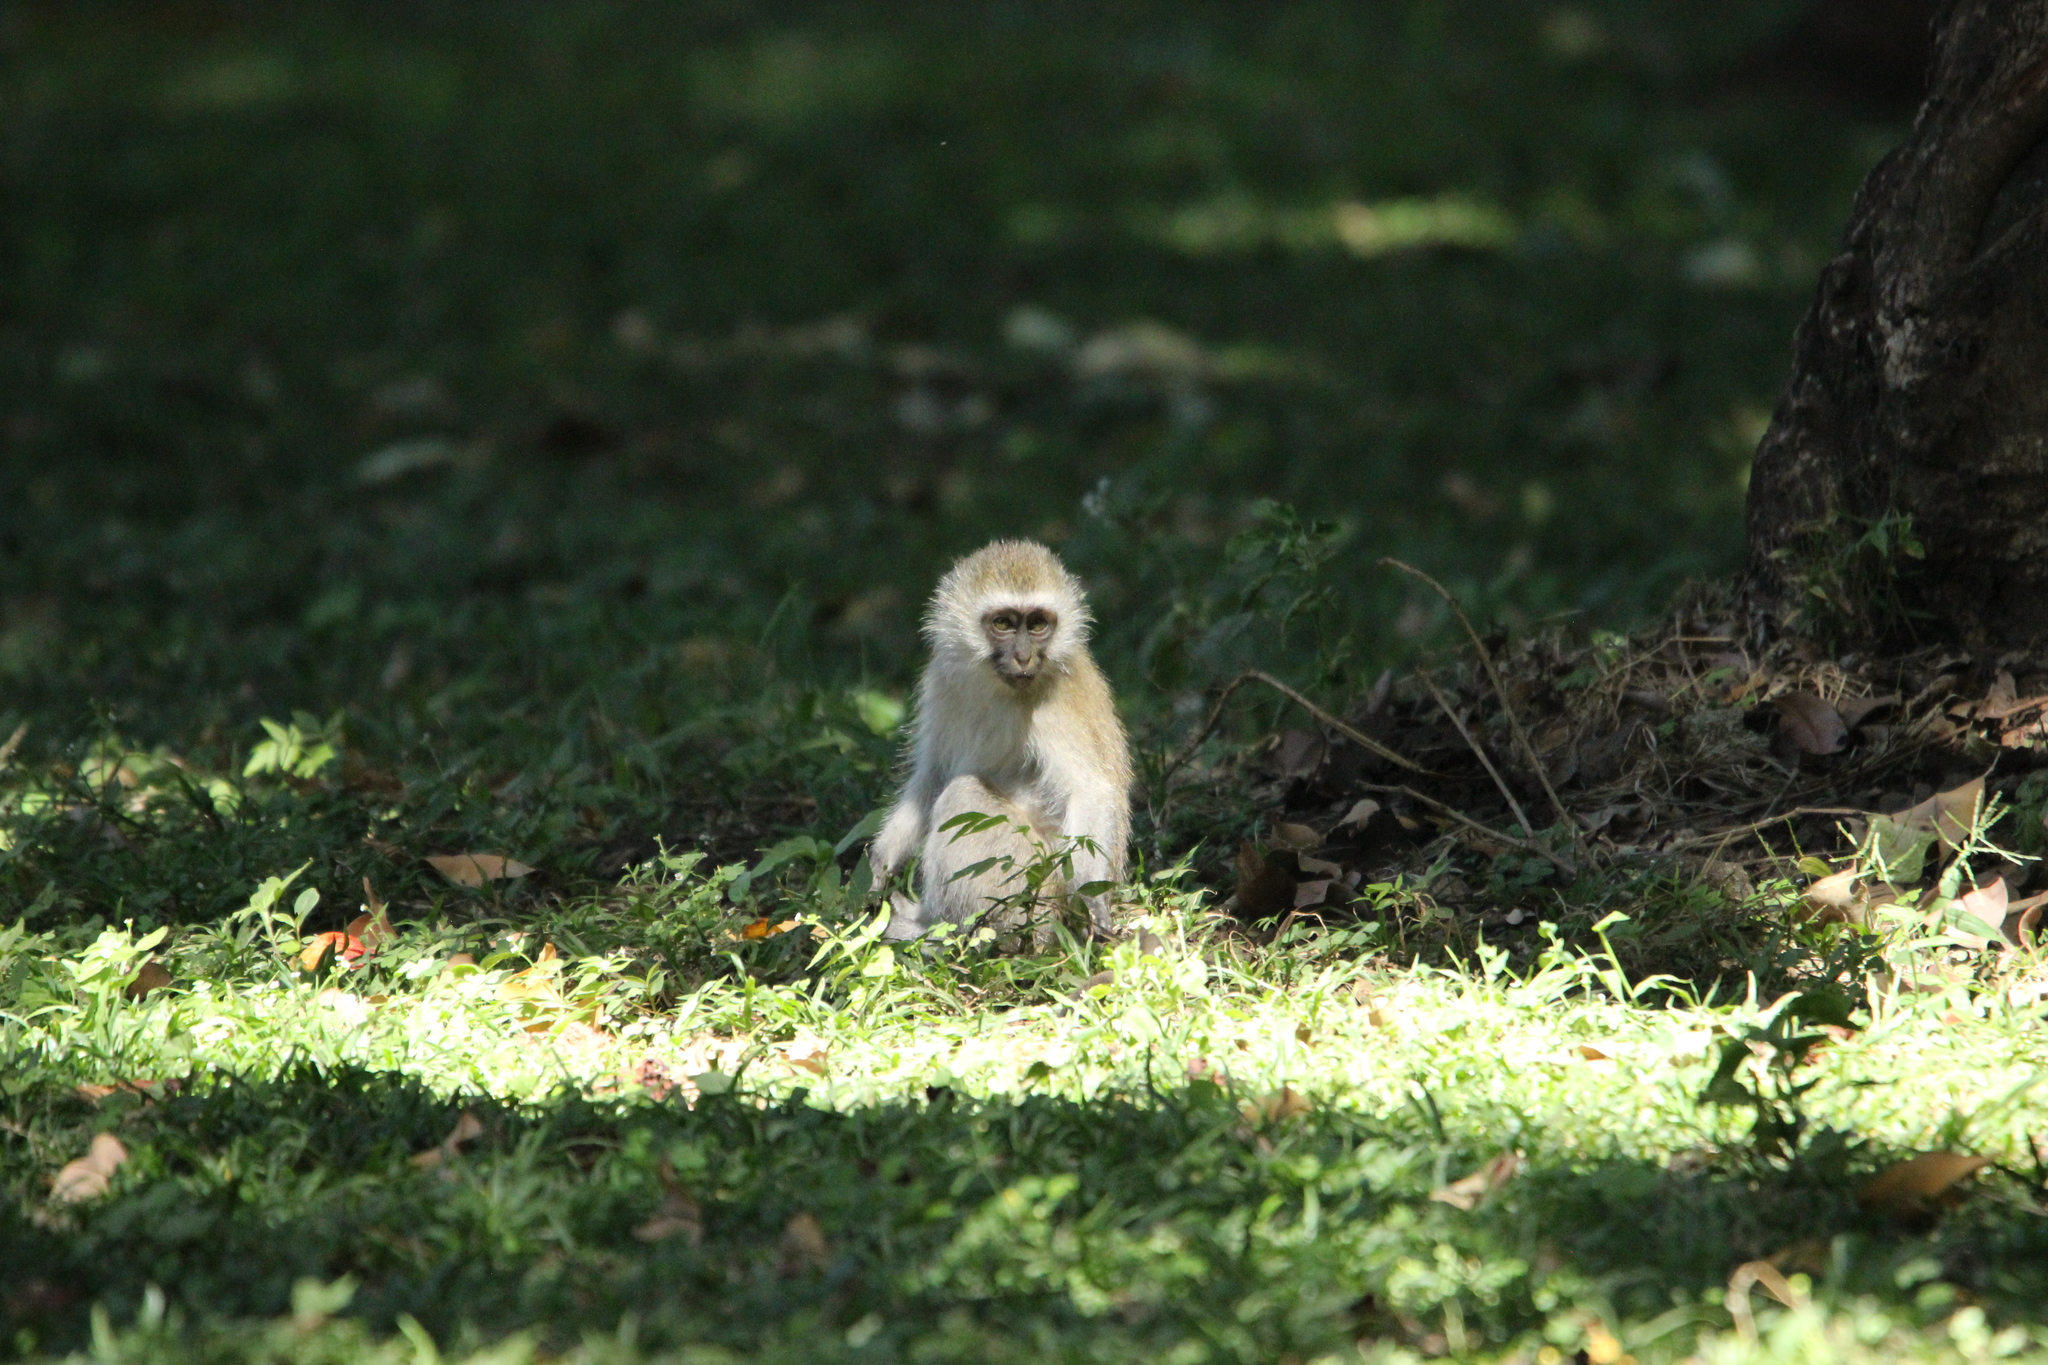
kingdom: Animalia
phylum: Chordata
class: Mammalia
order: Primates
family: Cercopithecidae
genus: Chlorocebus
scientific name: Chlorocebus pygerythrus
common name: Vervet monkey
